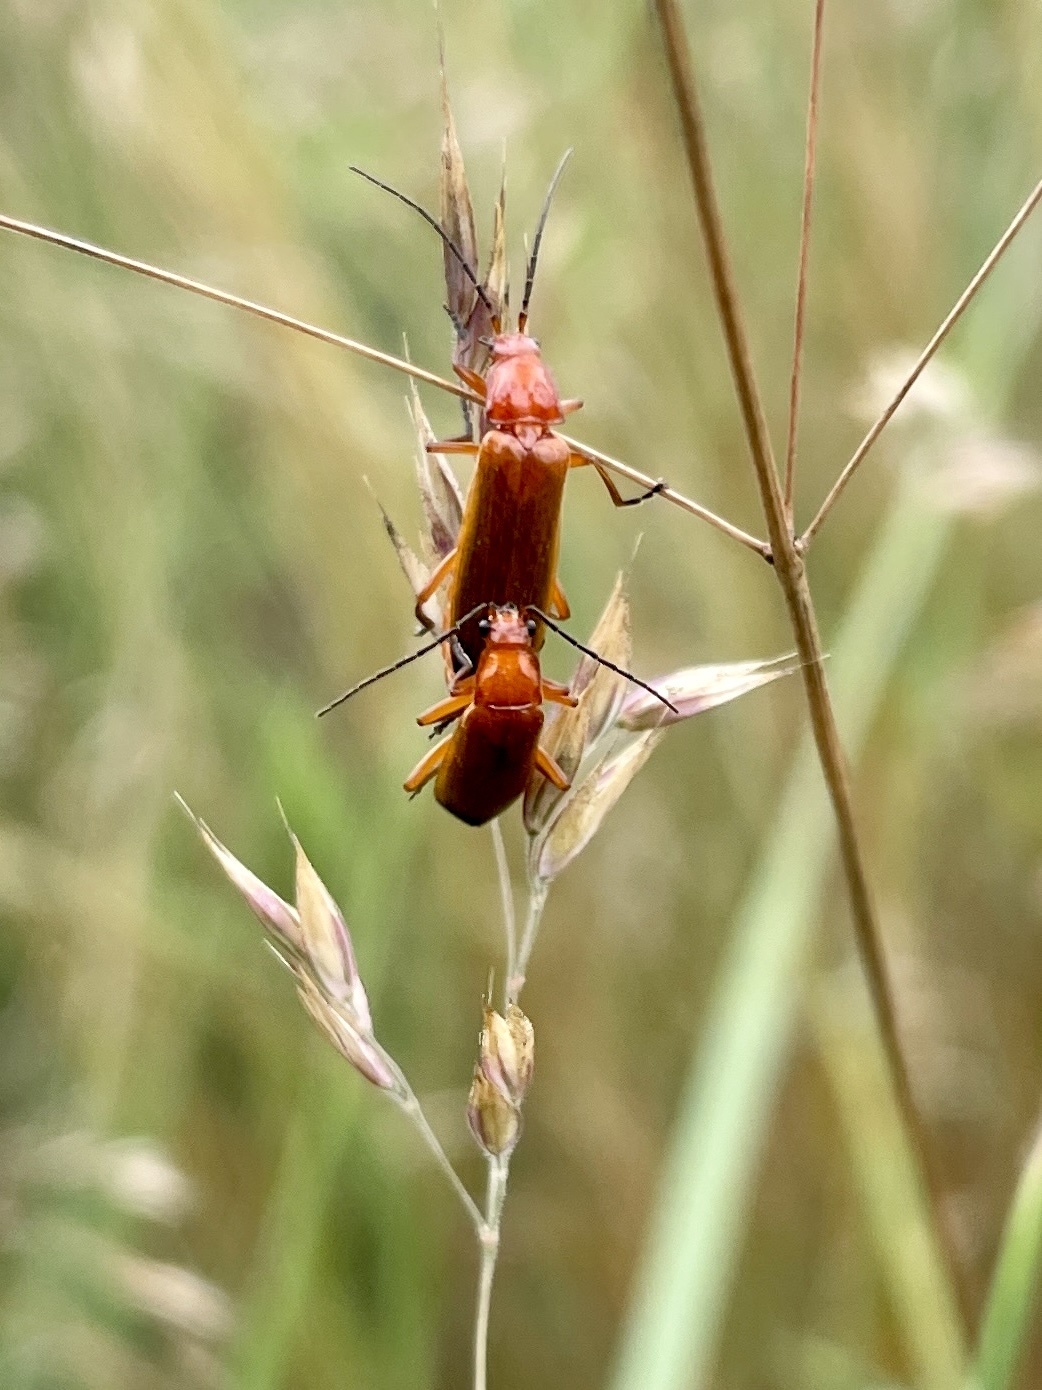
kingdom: Animalia
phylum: Arthropoda
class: Insecta
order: Coleoptera
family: Cantharidae
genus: Rhagonycha
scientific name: Rhagonycha fulva
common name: Common red soldier beetle
